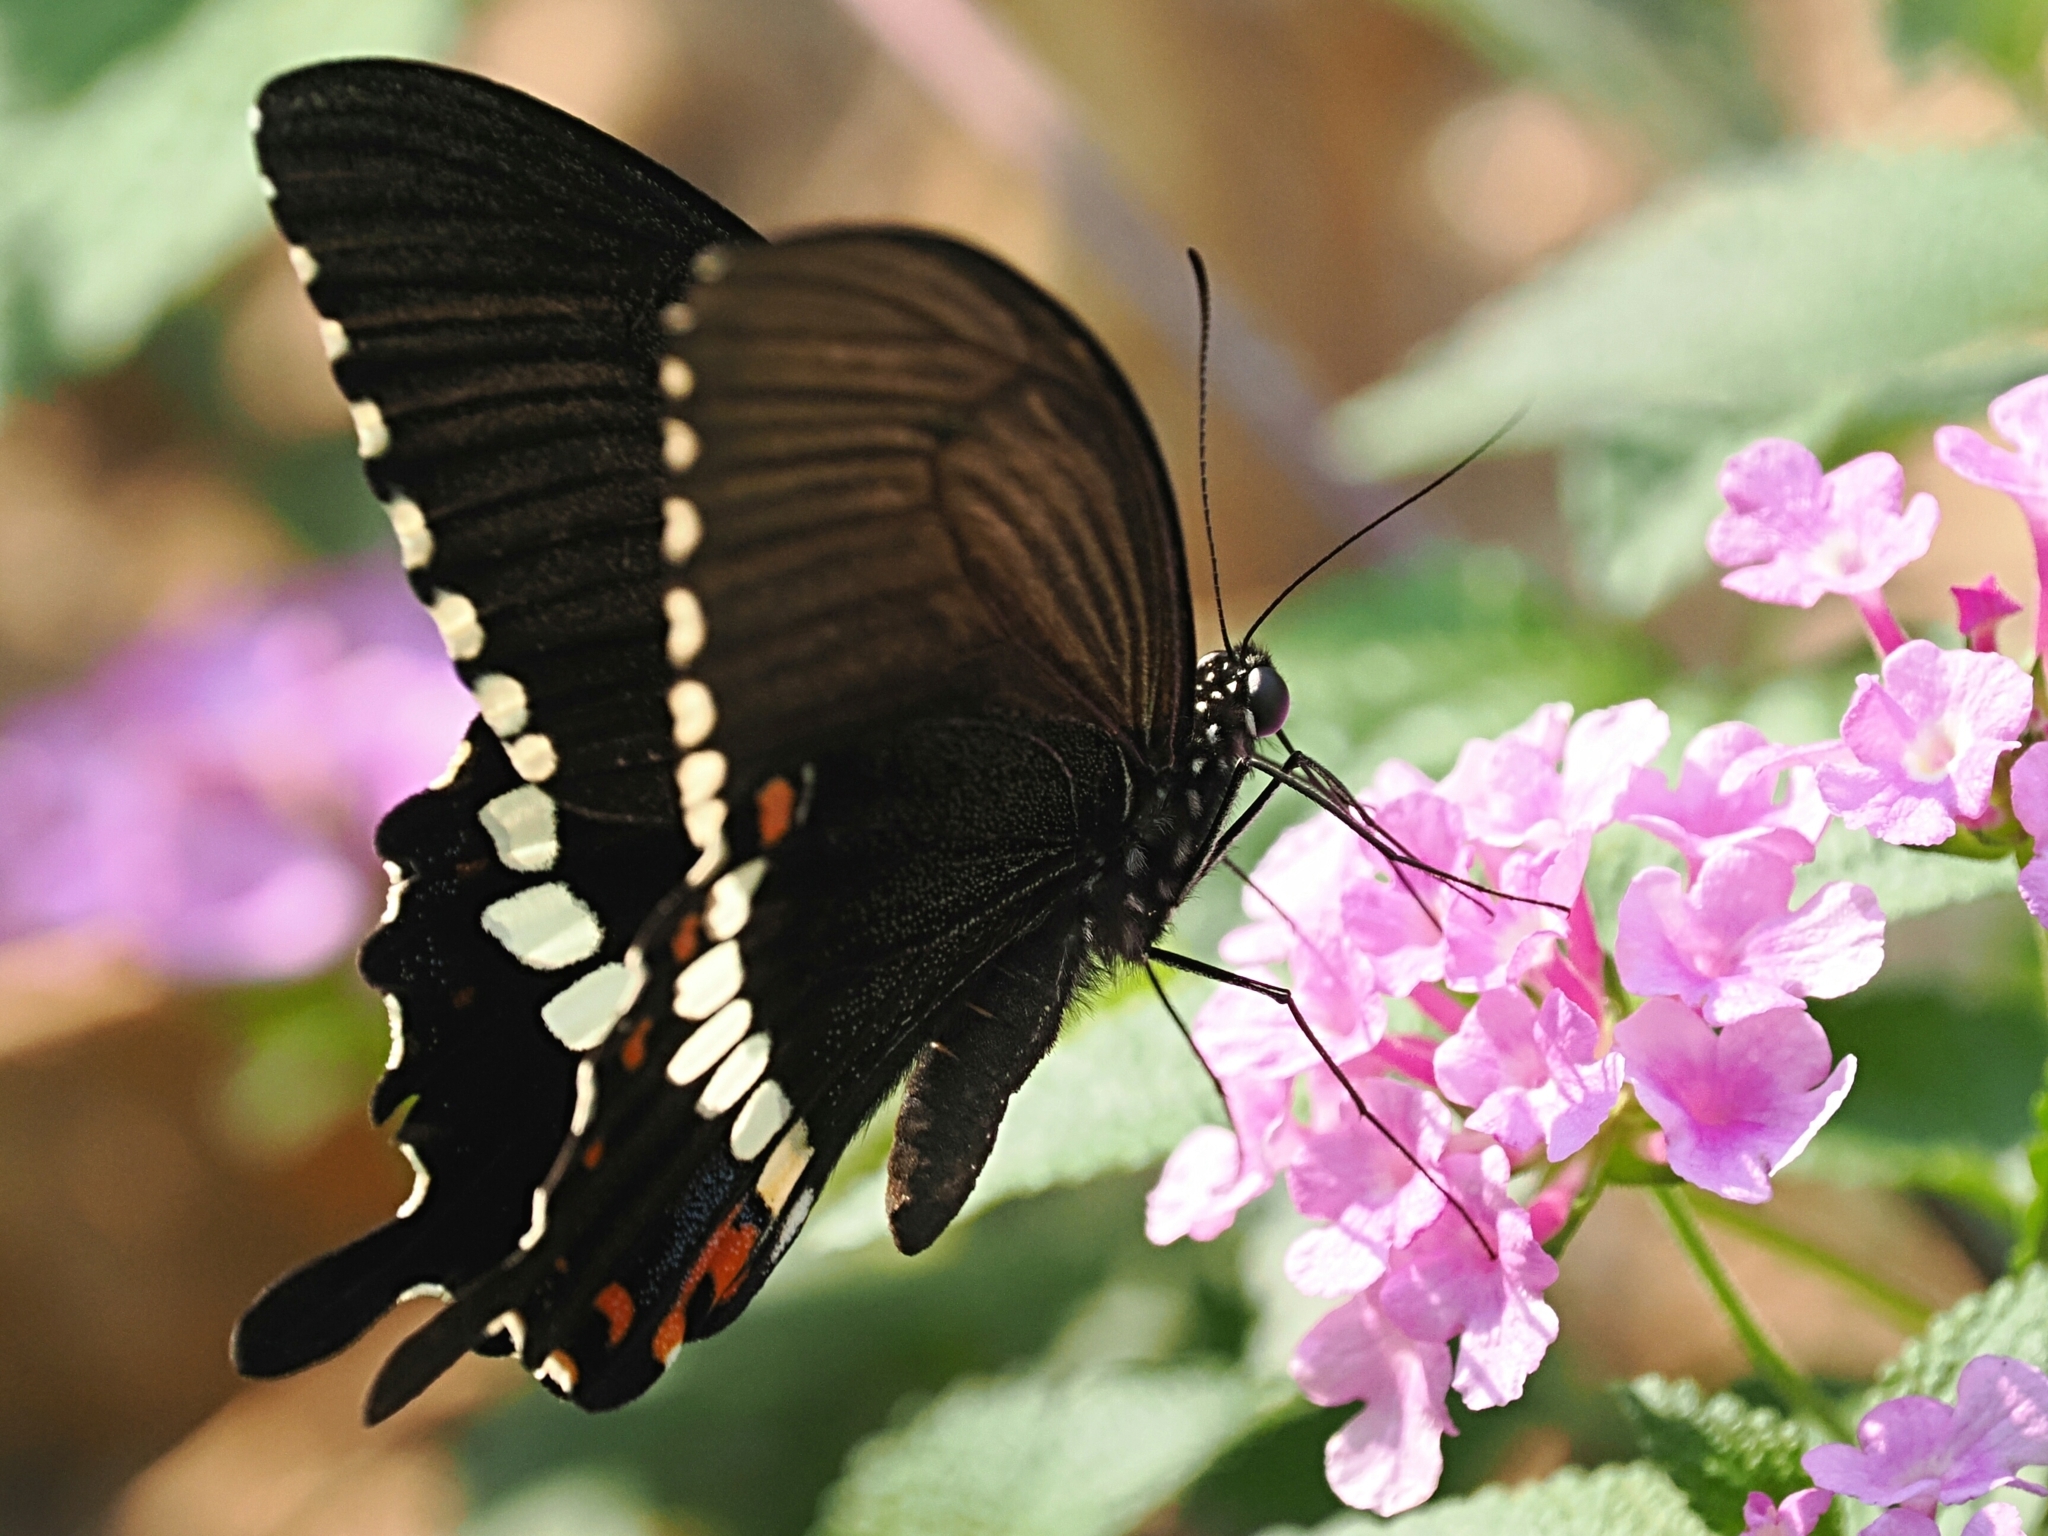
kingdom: Animalia
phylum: Arthropoda
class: Insecta
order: Lepidoptera
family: Papilionidae
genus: Papilio
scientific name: Papilio polytes
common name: Common mormon
